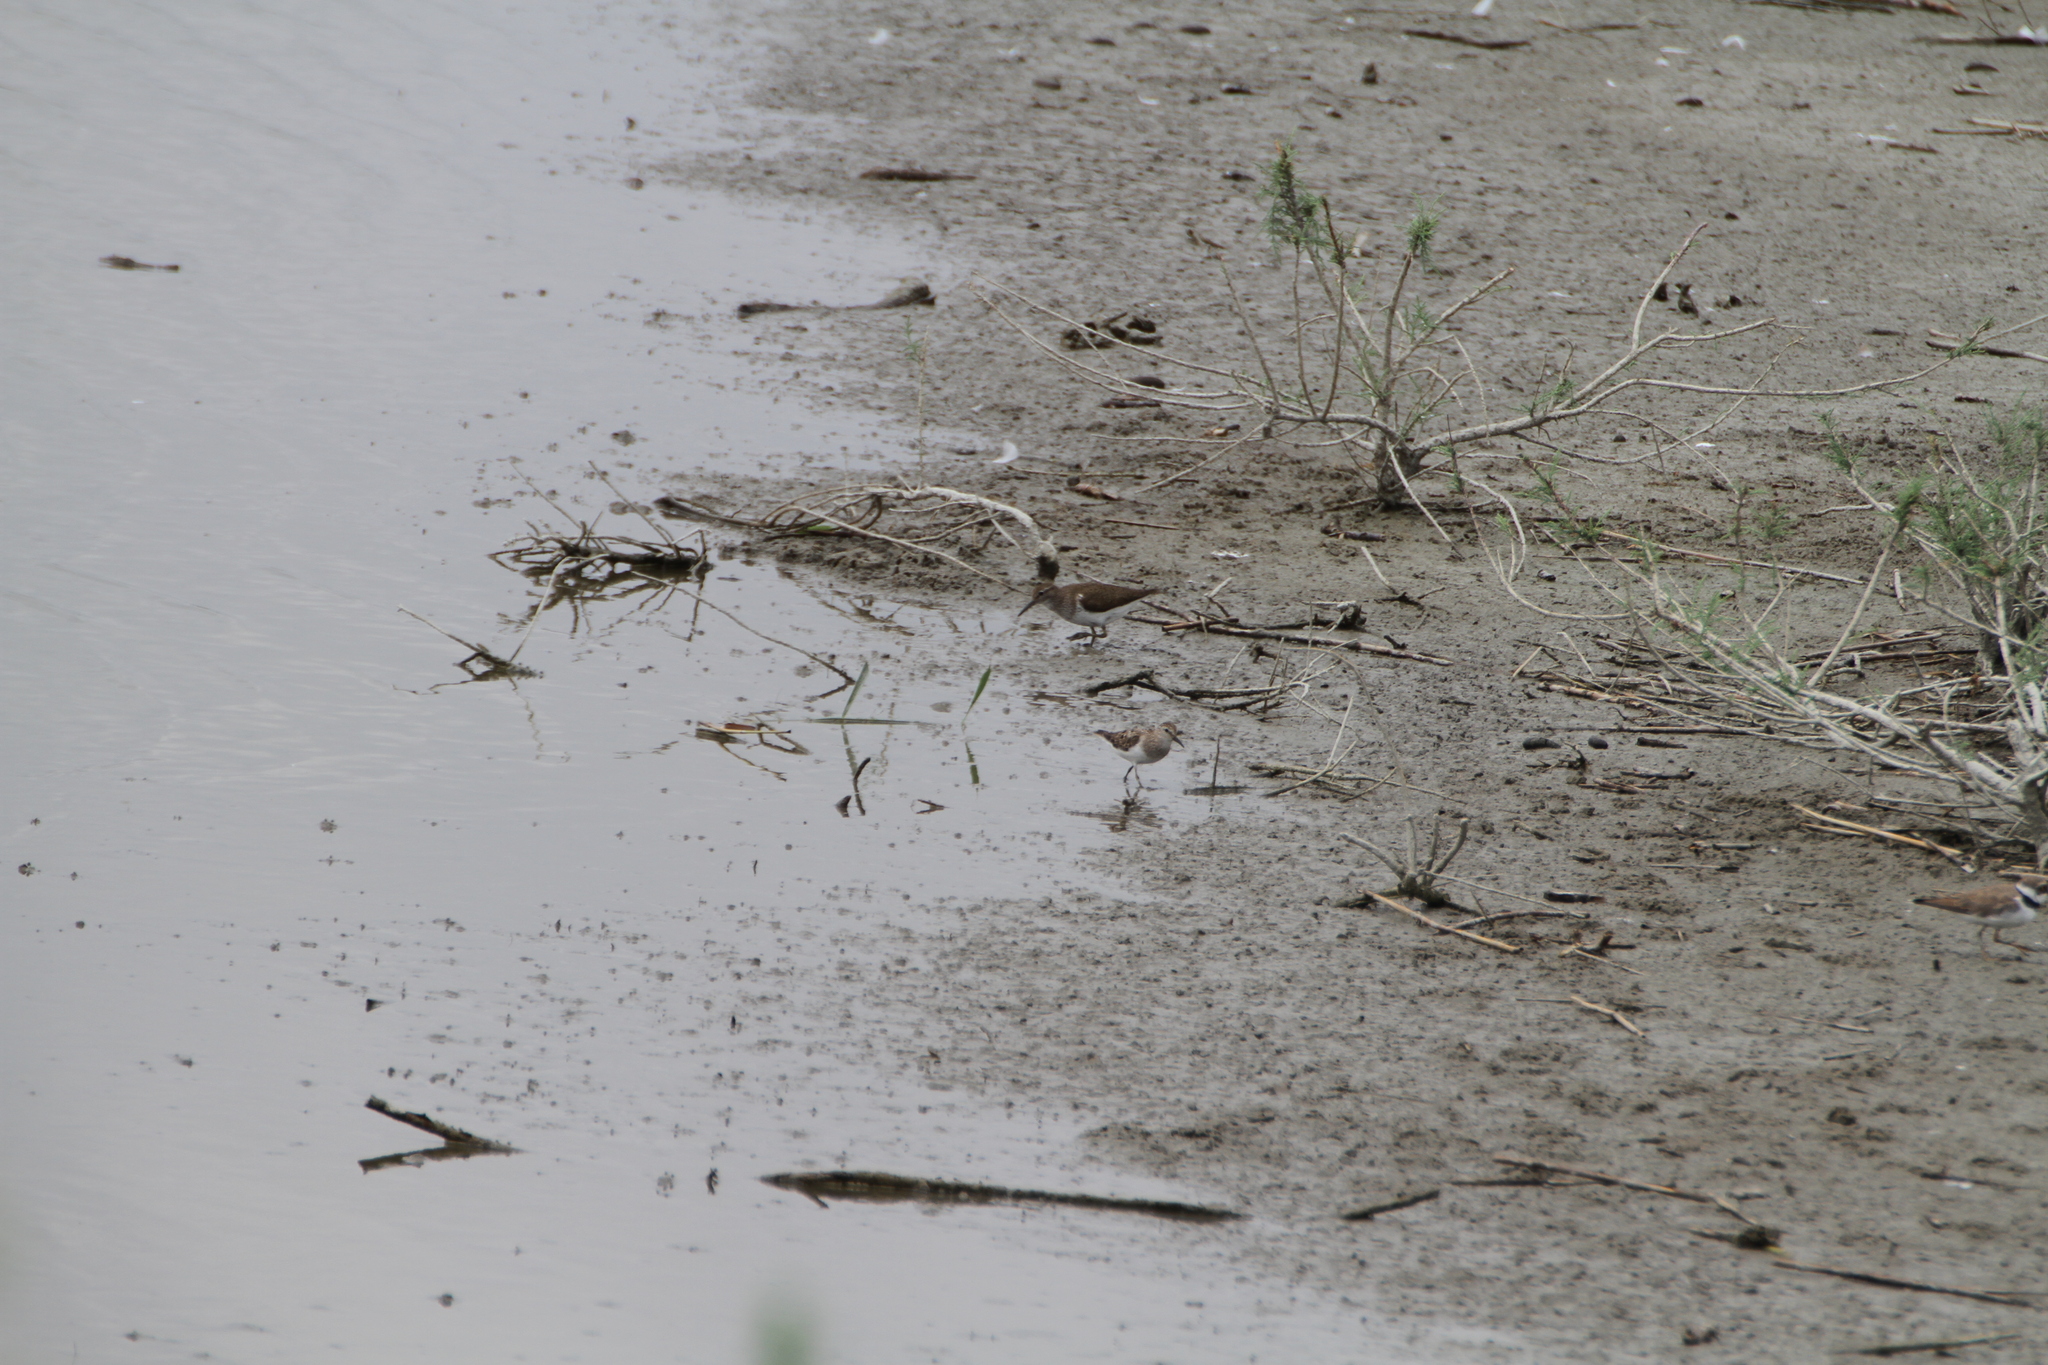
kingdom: Animalia
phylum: Chordata
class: Aves
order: Charadriiformes
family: Scolopacidae
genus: Actitis
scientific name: Actitis hypoleucos
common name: Common sandpiper
